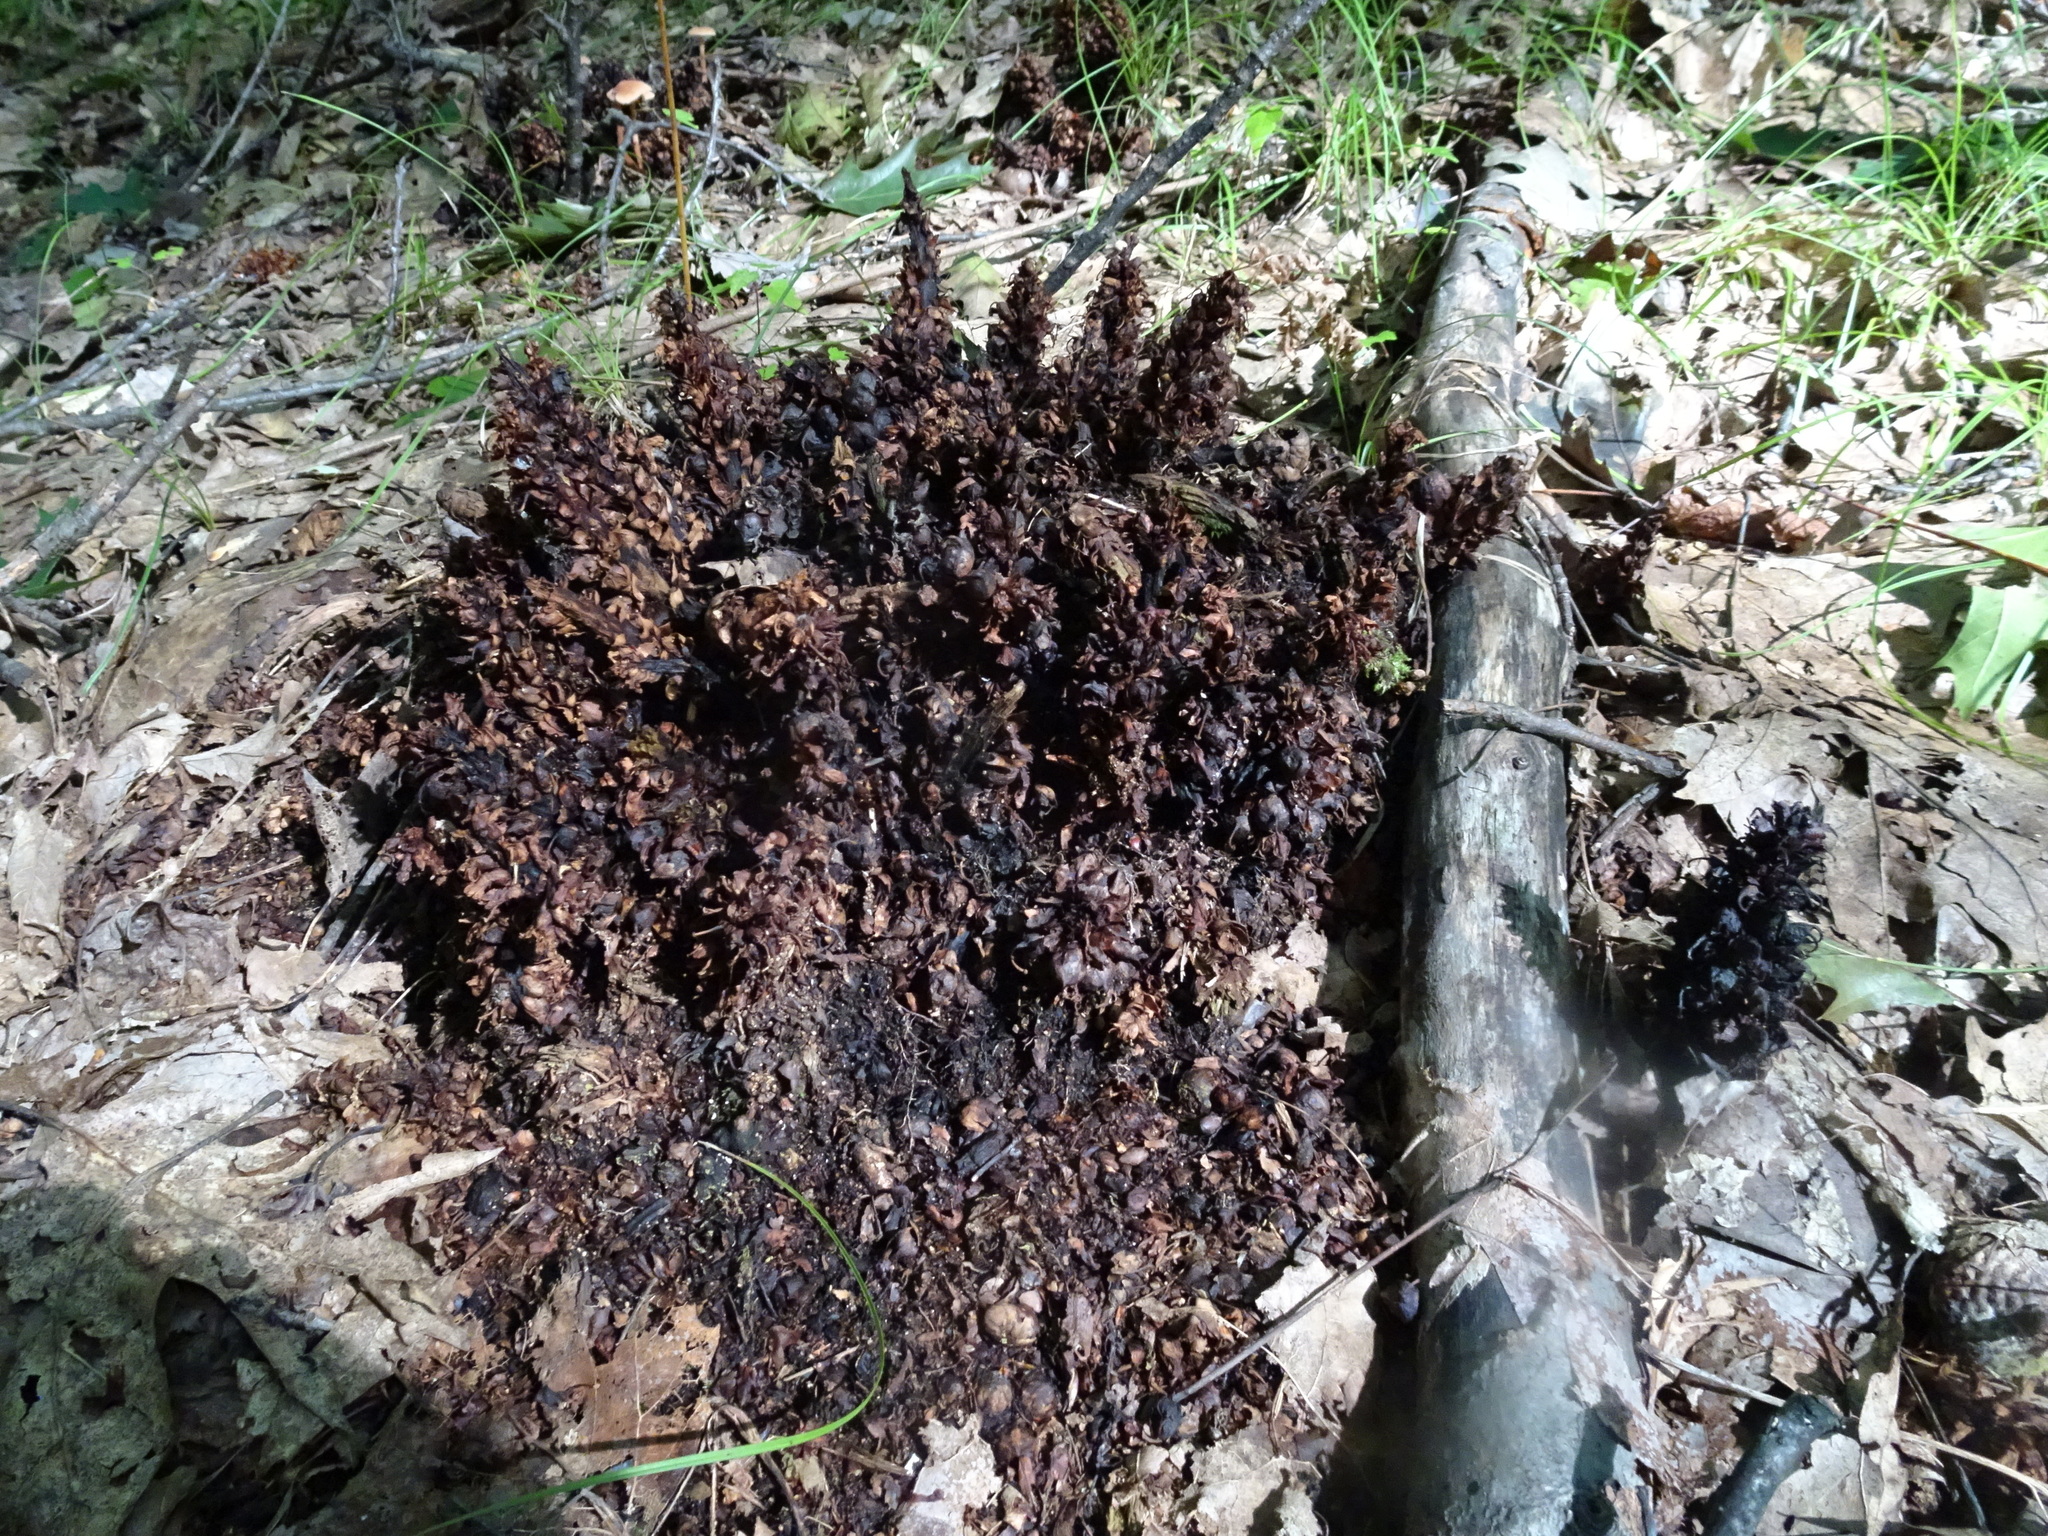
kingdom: Plantae
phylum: Tracheophyta
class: Magnoliopsida
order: Lamiales
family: Orobanchaceae
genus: Conopholis
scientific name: Conopholis americana
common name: American cancer-root
